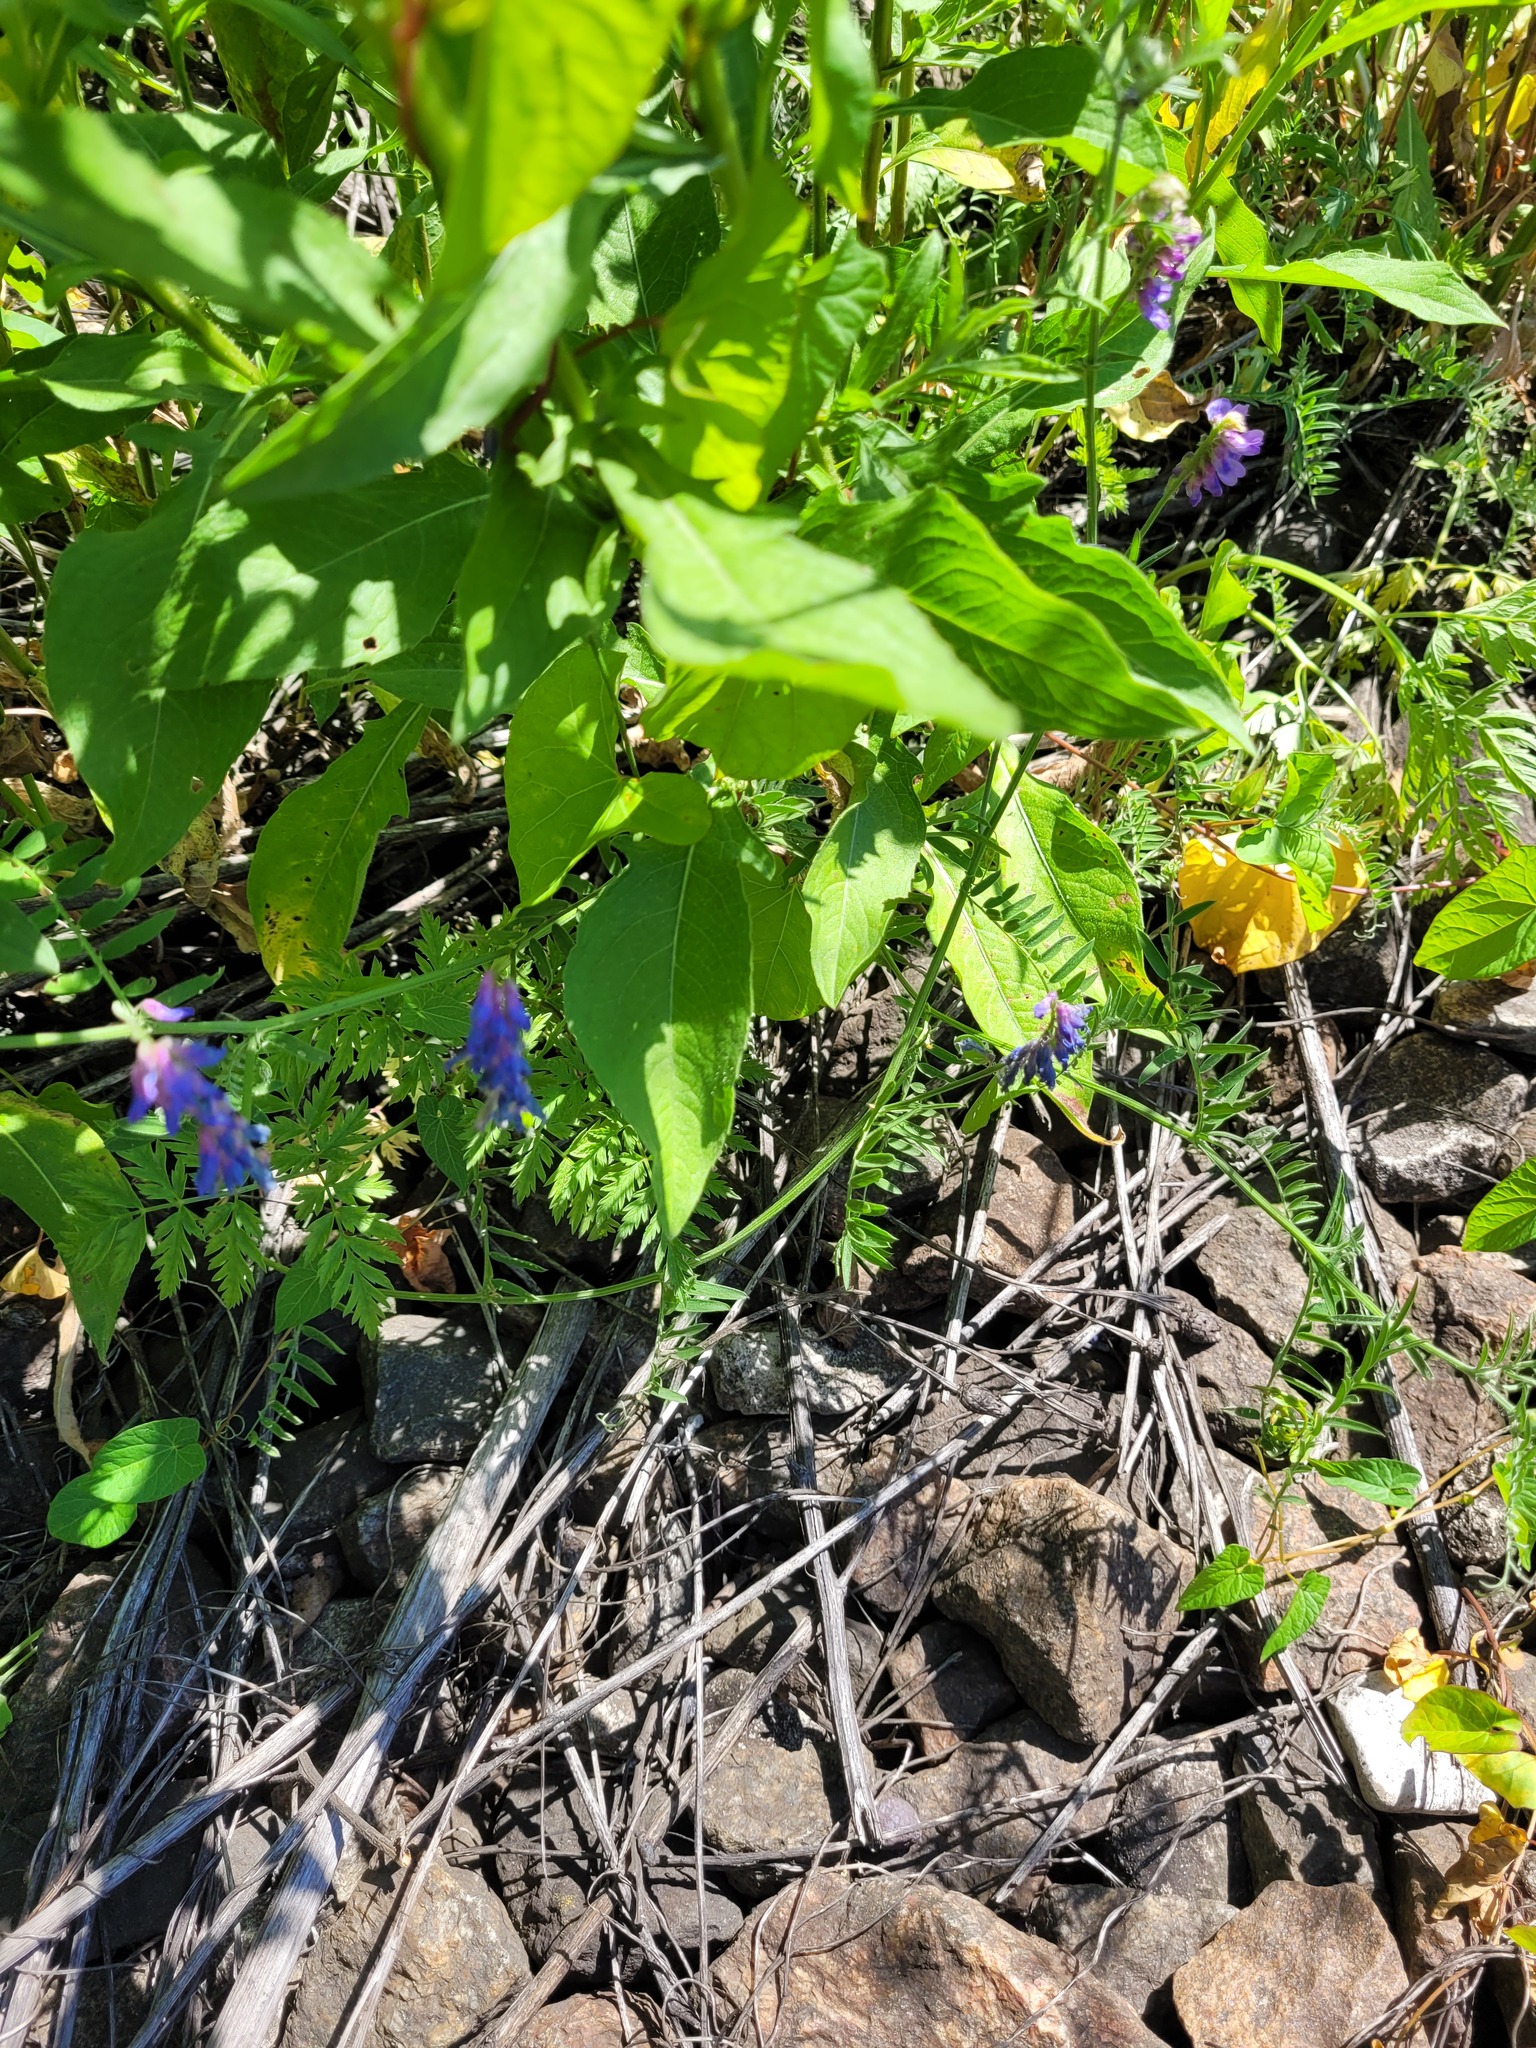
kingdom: Plantae
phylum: Tracheophyta
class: Magnoliopsida
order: Fabales
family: Fabaceae
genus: Vicia
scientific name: Vicia cracca
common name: Bird vetch
